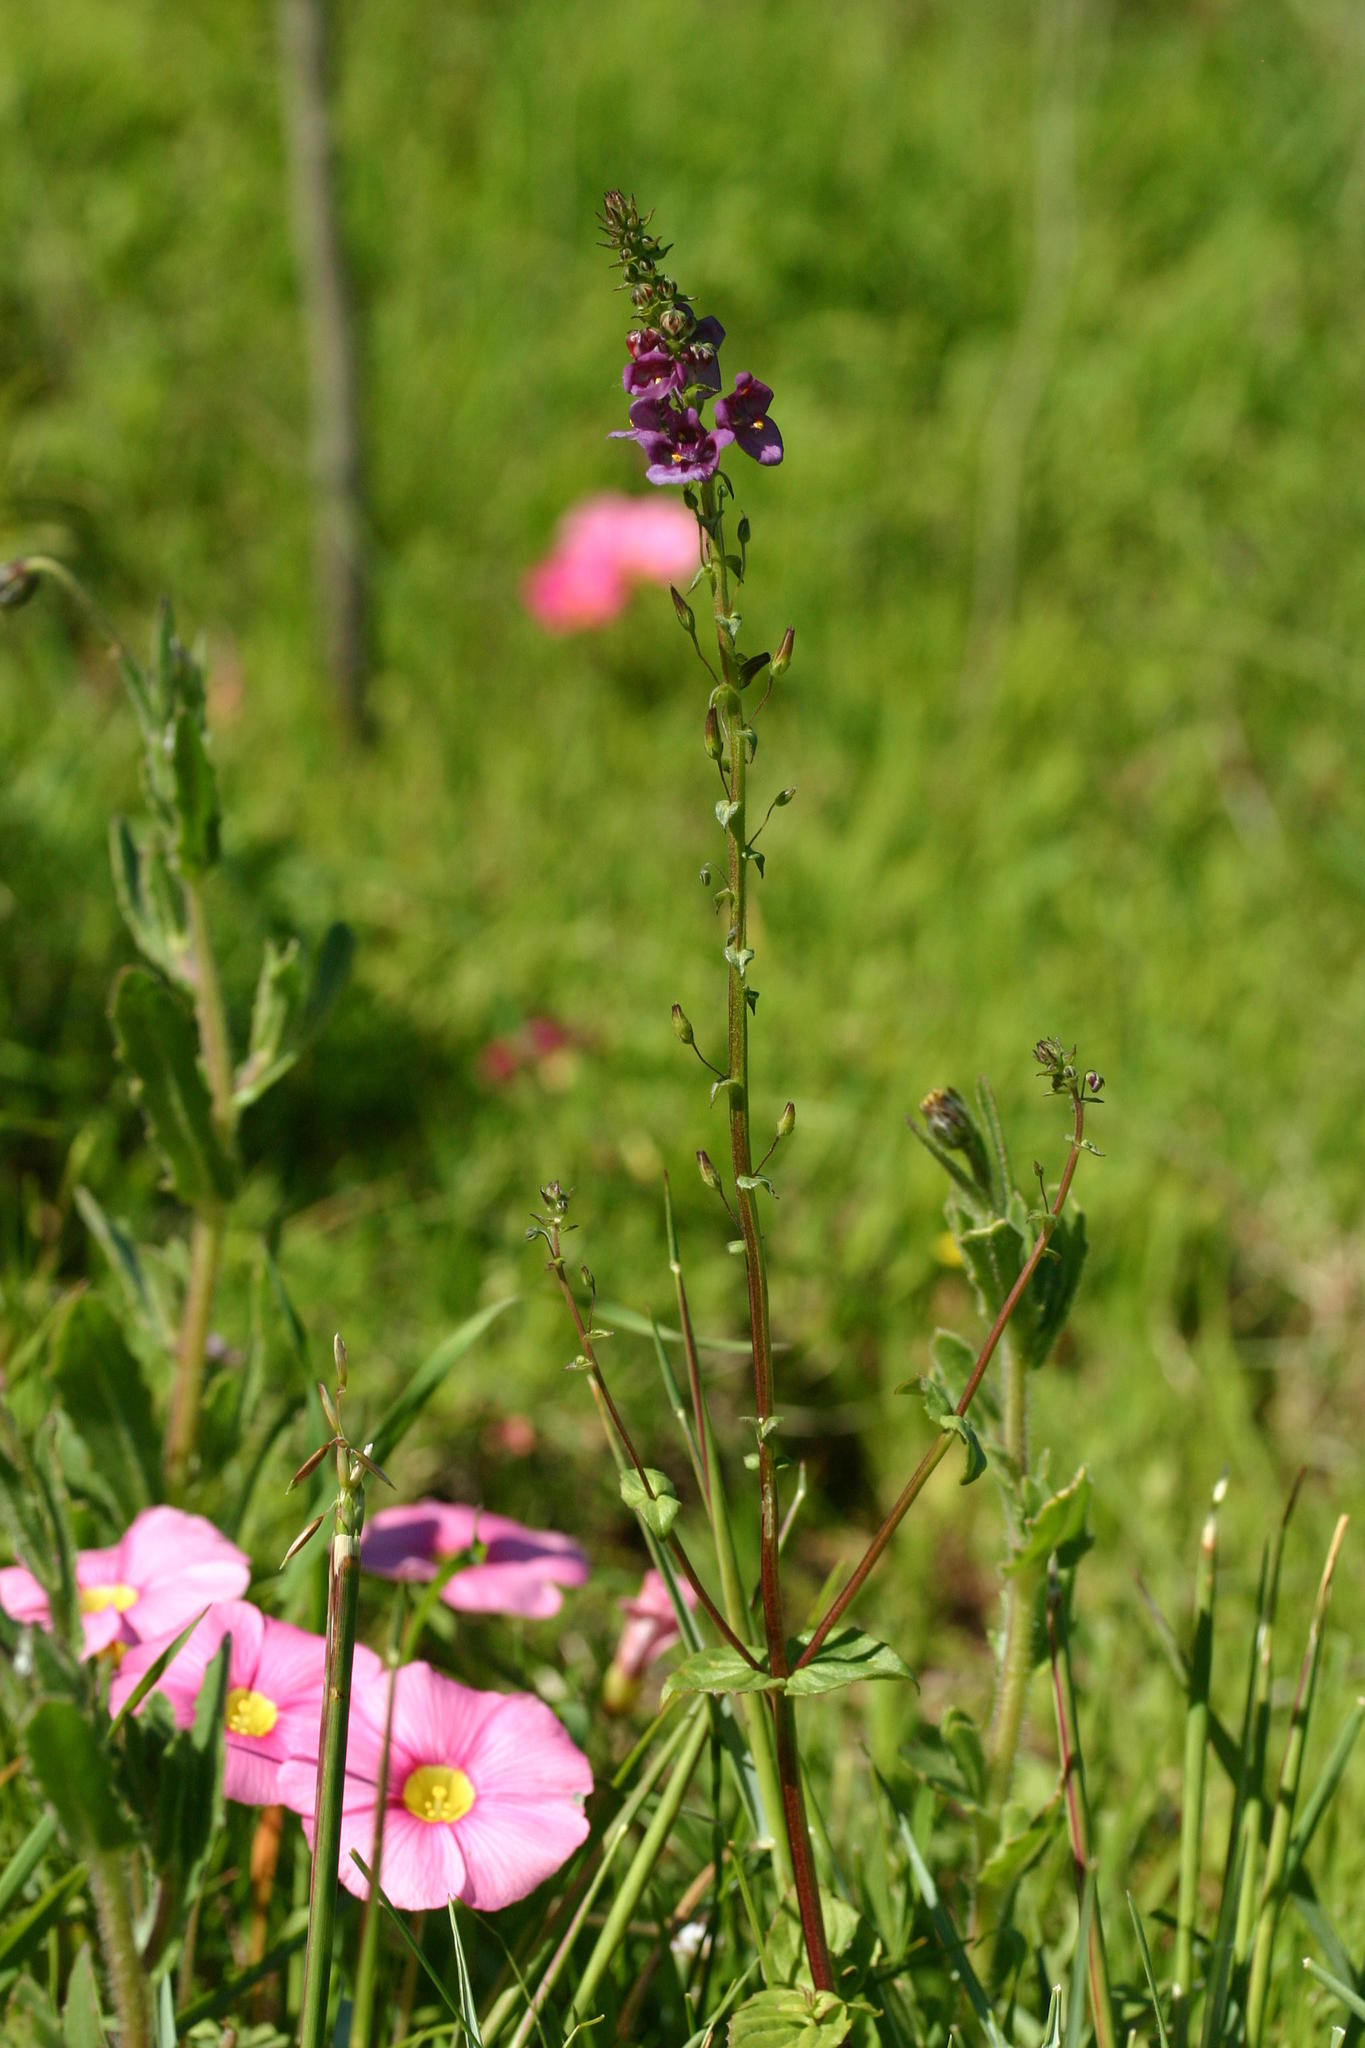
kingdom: Plantae
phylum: Tracheophyta
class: Magnoliopsida
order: Lamiales
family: Scrophulariaceae
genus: Diascia
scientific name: Diascia parviflora
